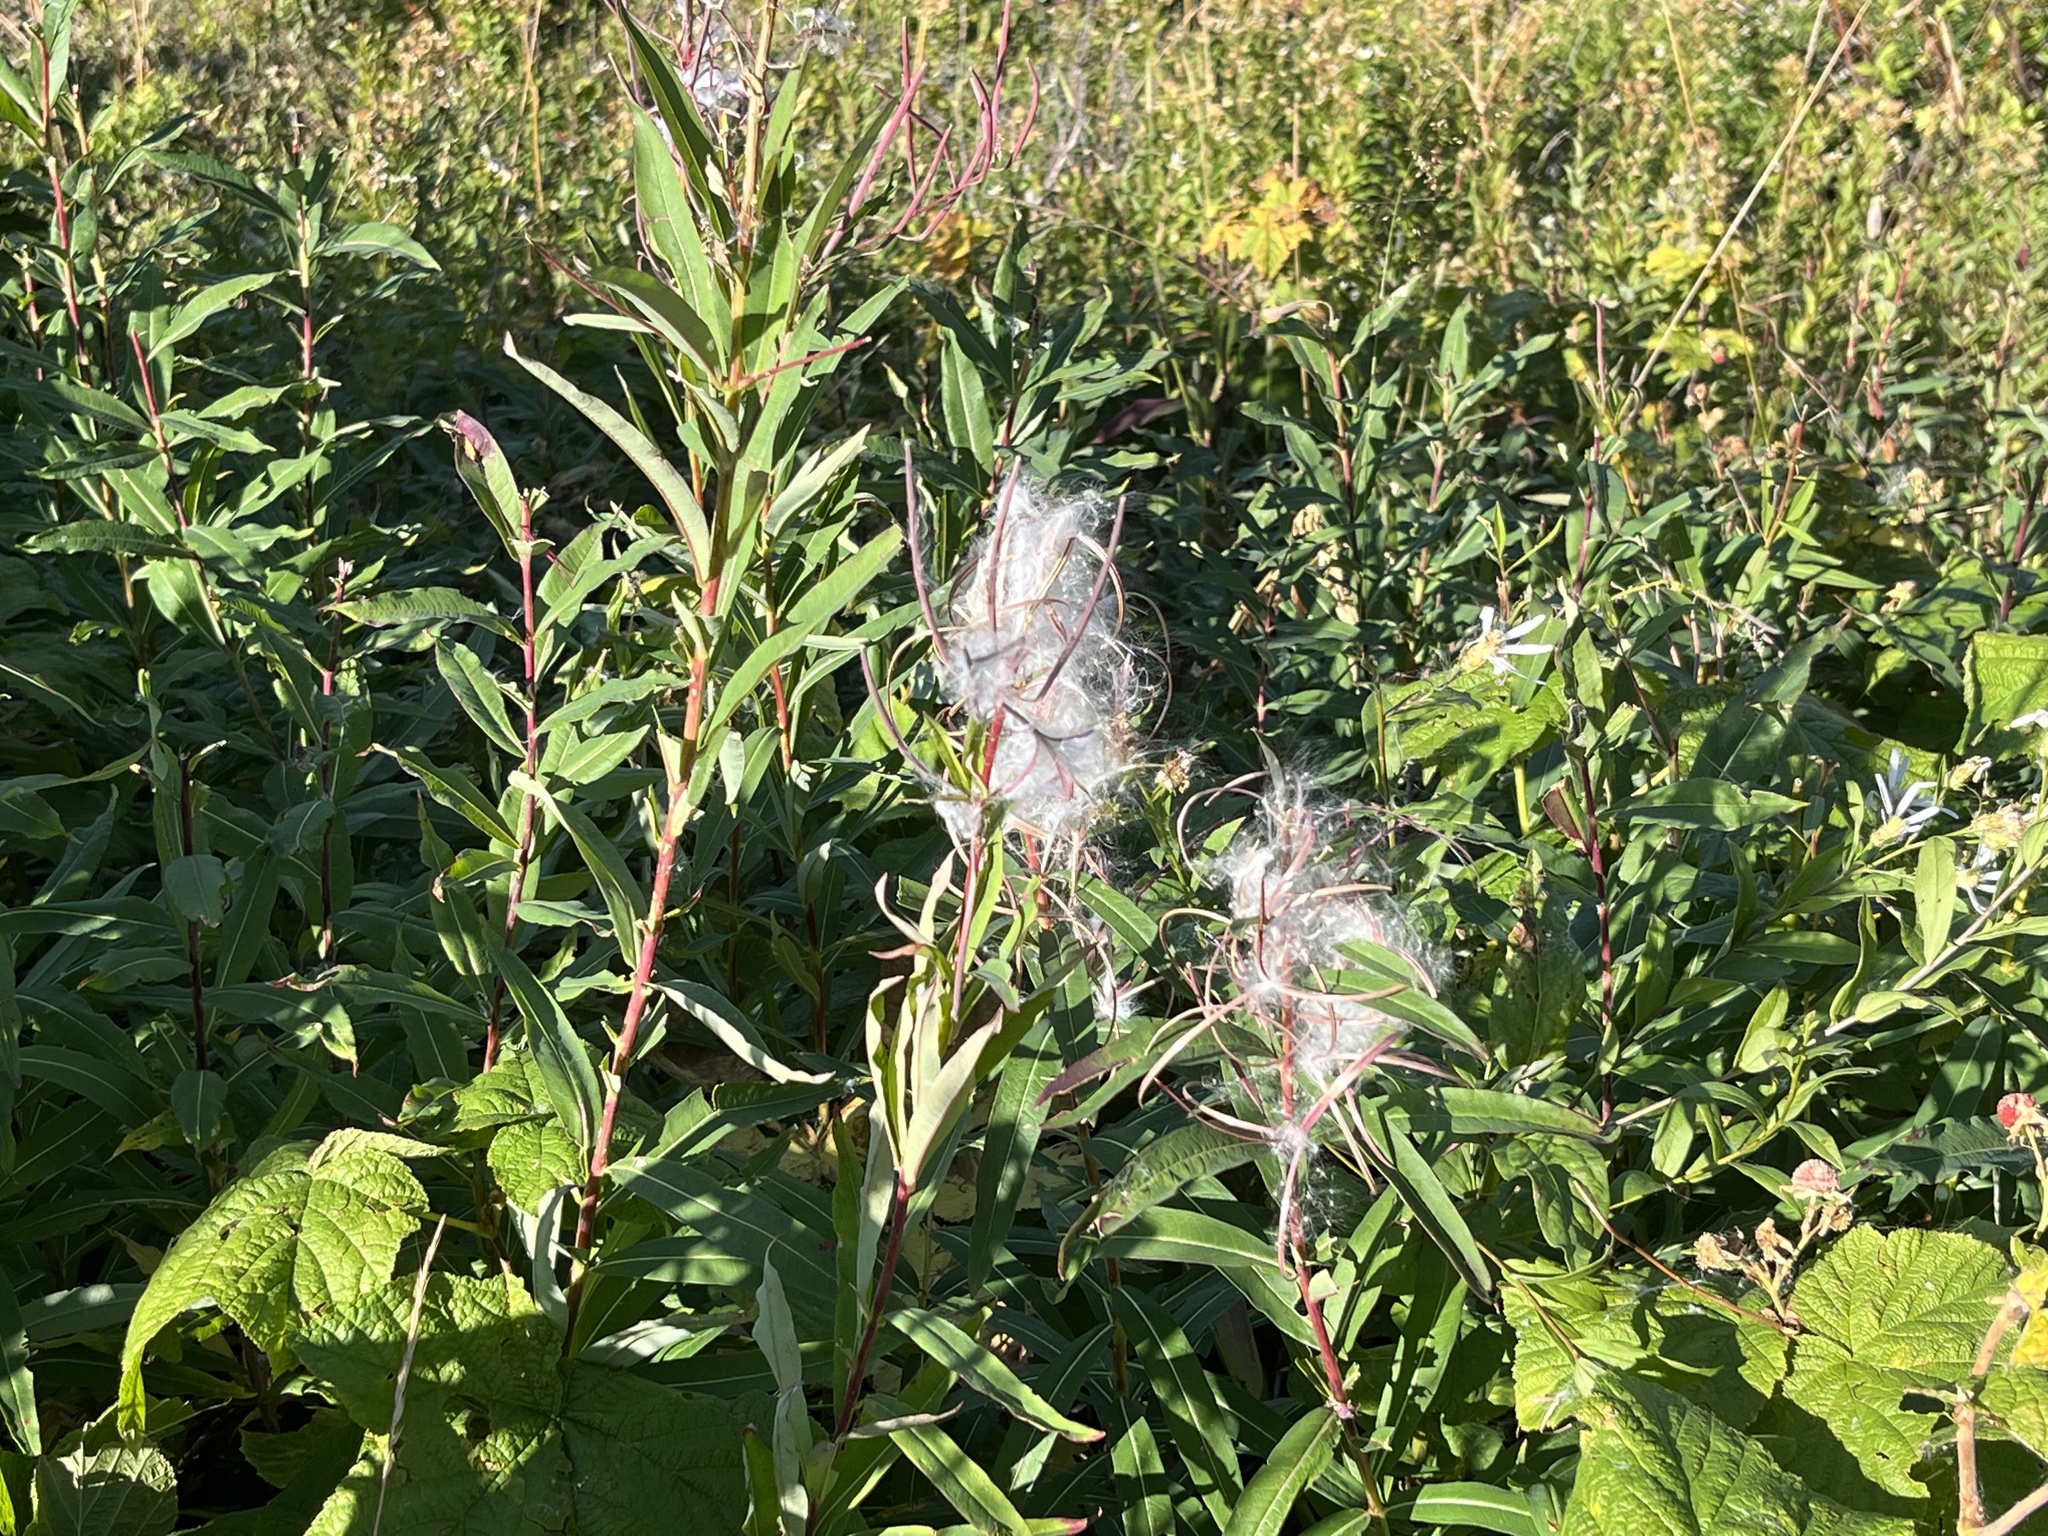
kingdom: Plantae
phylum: Tracheophyta
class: Magnoliopsida
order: Myrtales
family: Onagraceae
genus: Chamaenerion
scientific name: Chamaenerion angustifolium
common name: Fireweed
